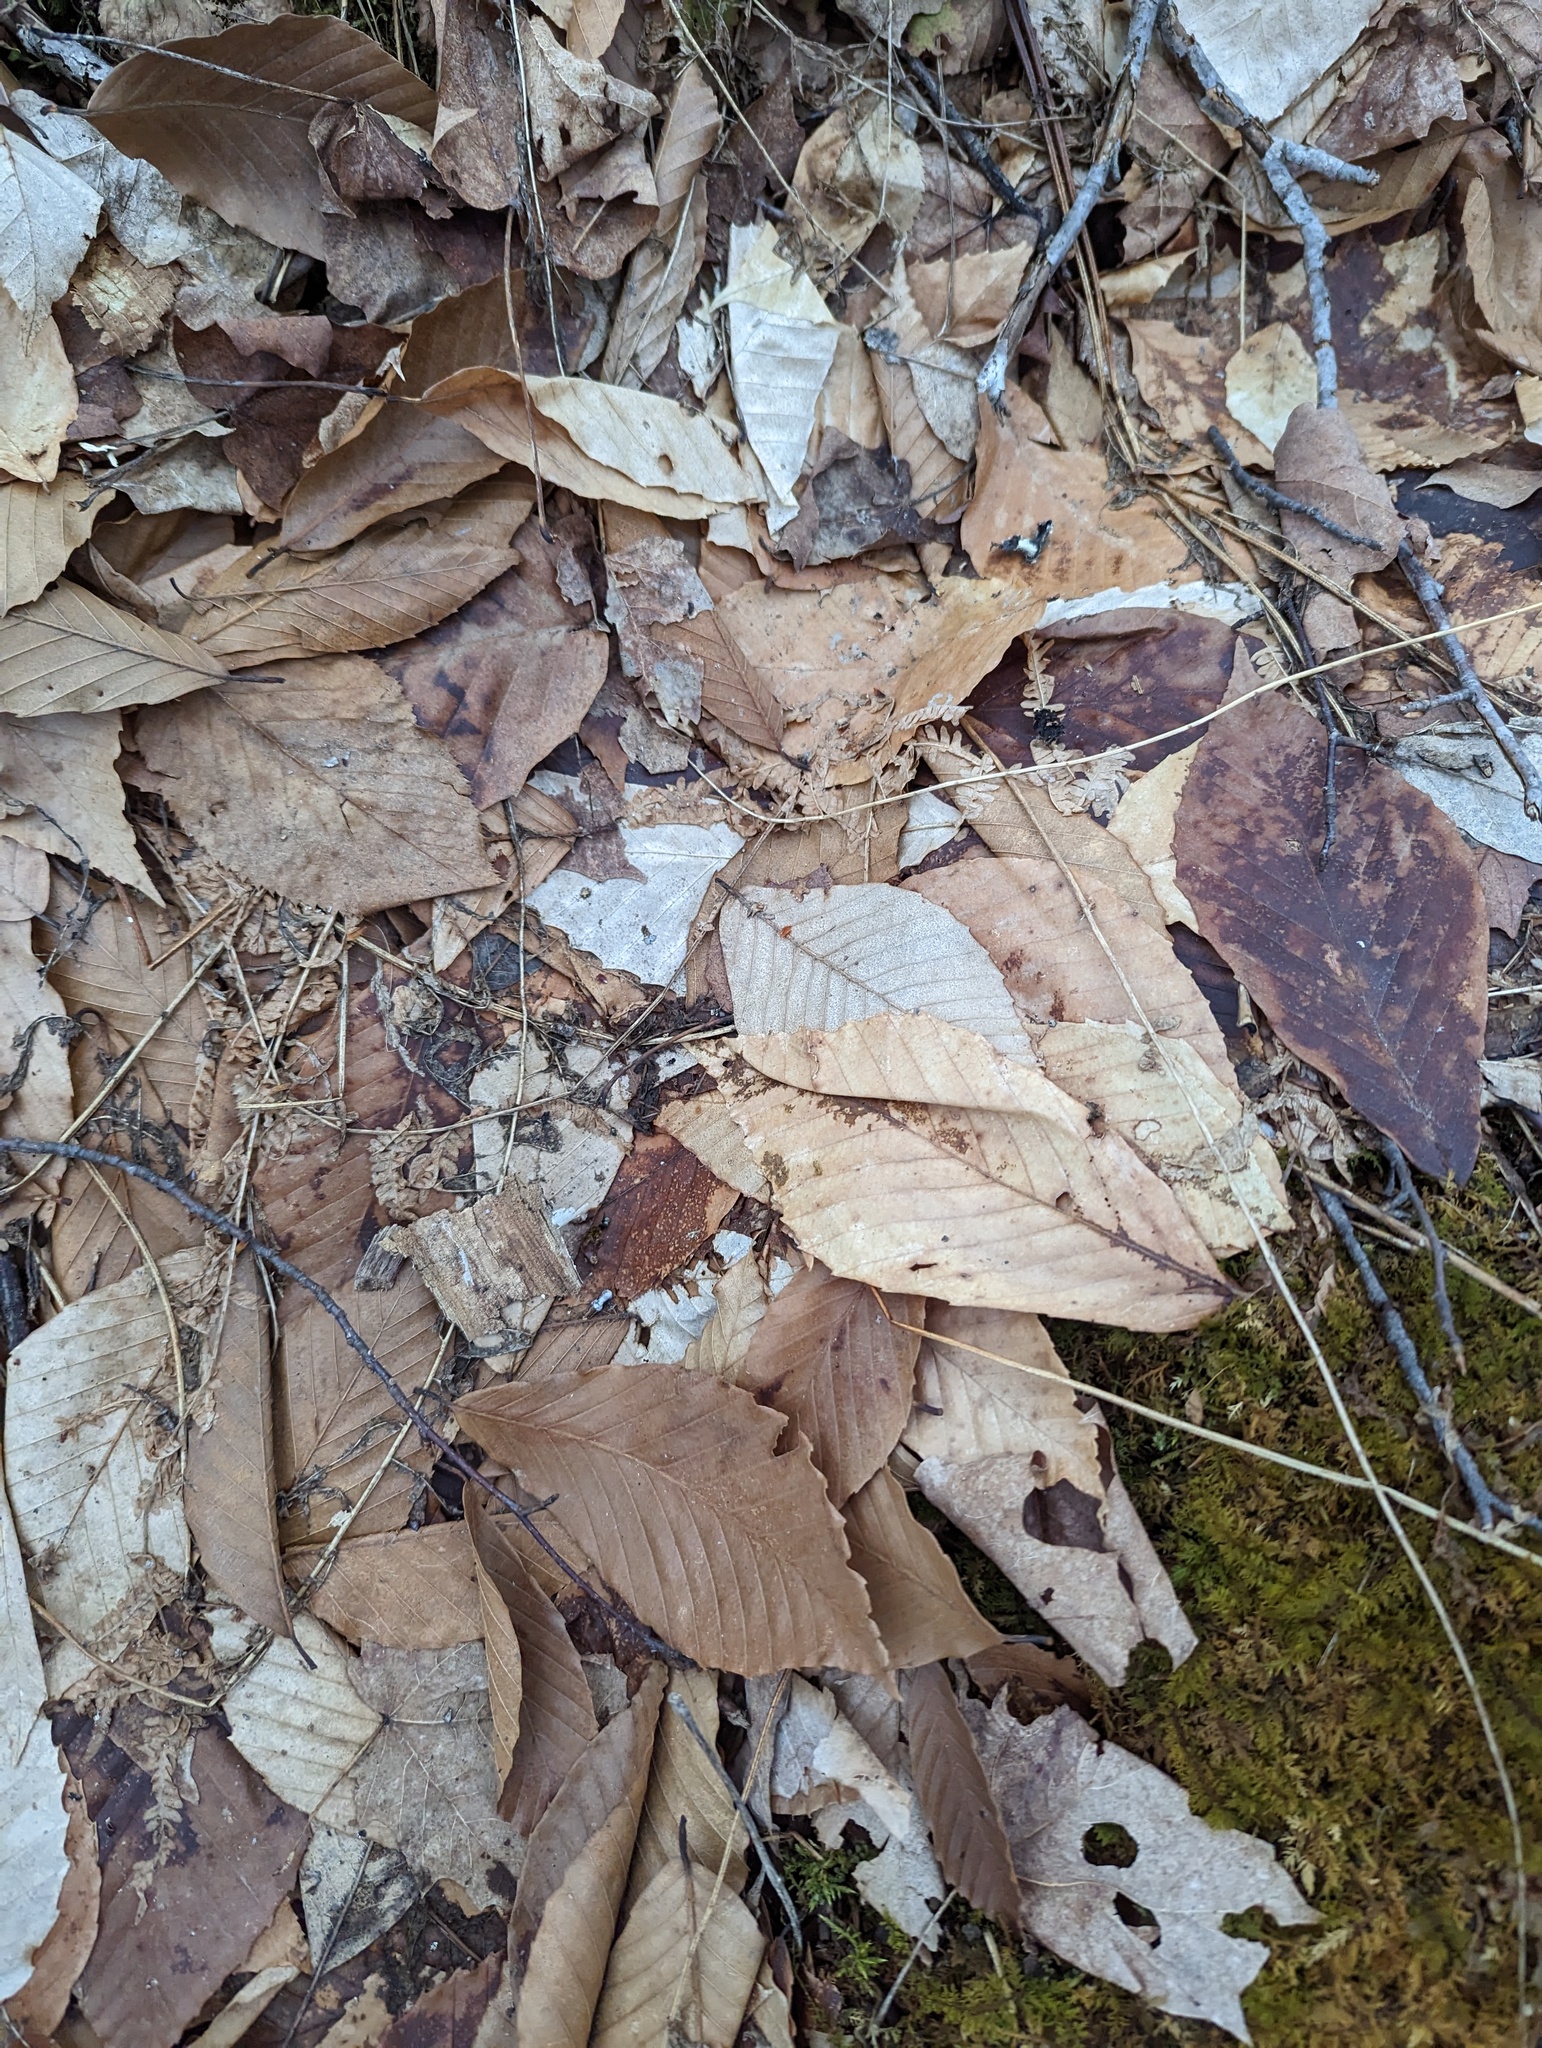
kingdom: Plantae
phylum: Tracheophyta
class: Magnoliopsida
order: Fagales
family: Fagaceae
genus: Fagus
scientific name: Fagus grandifolia
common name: American beech
